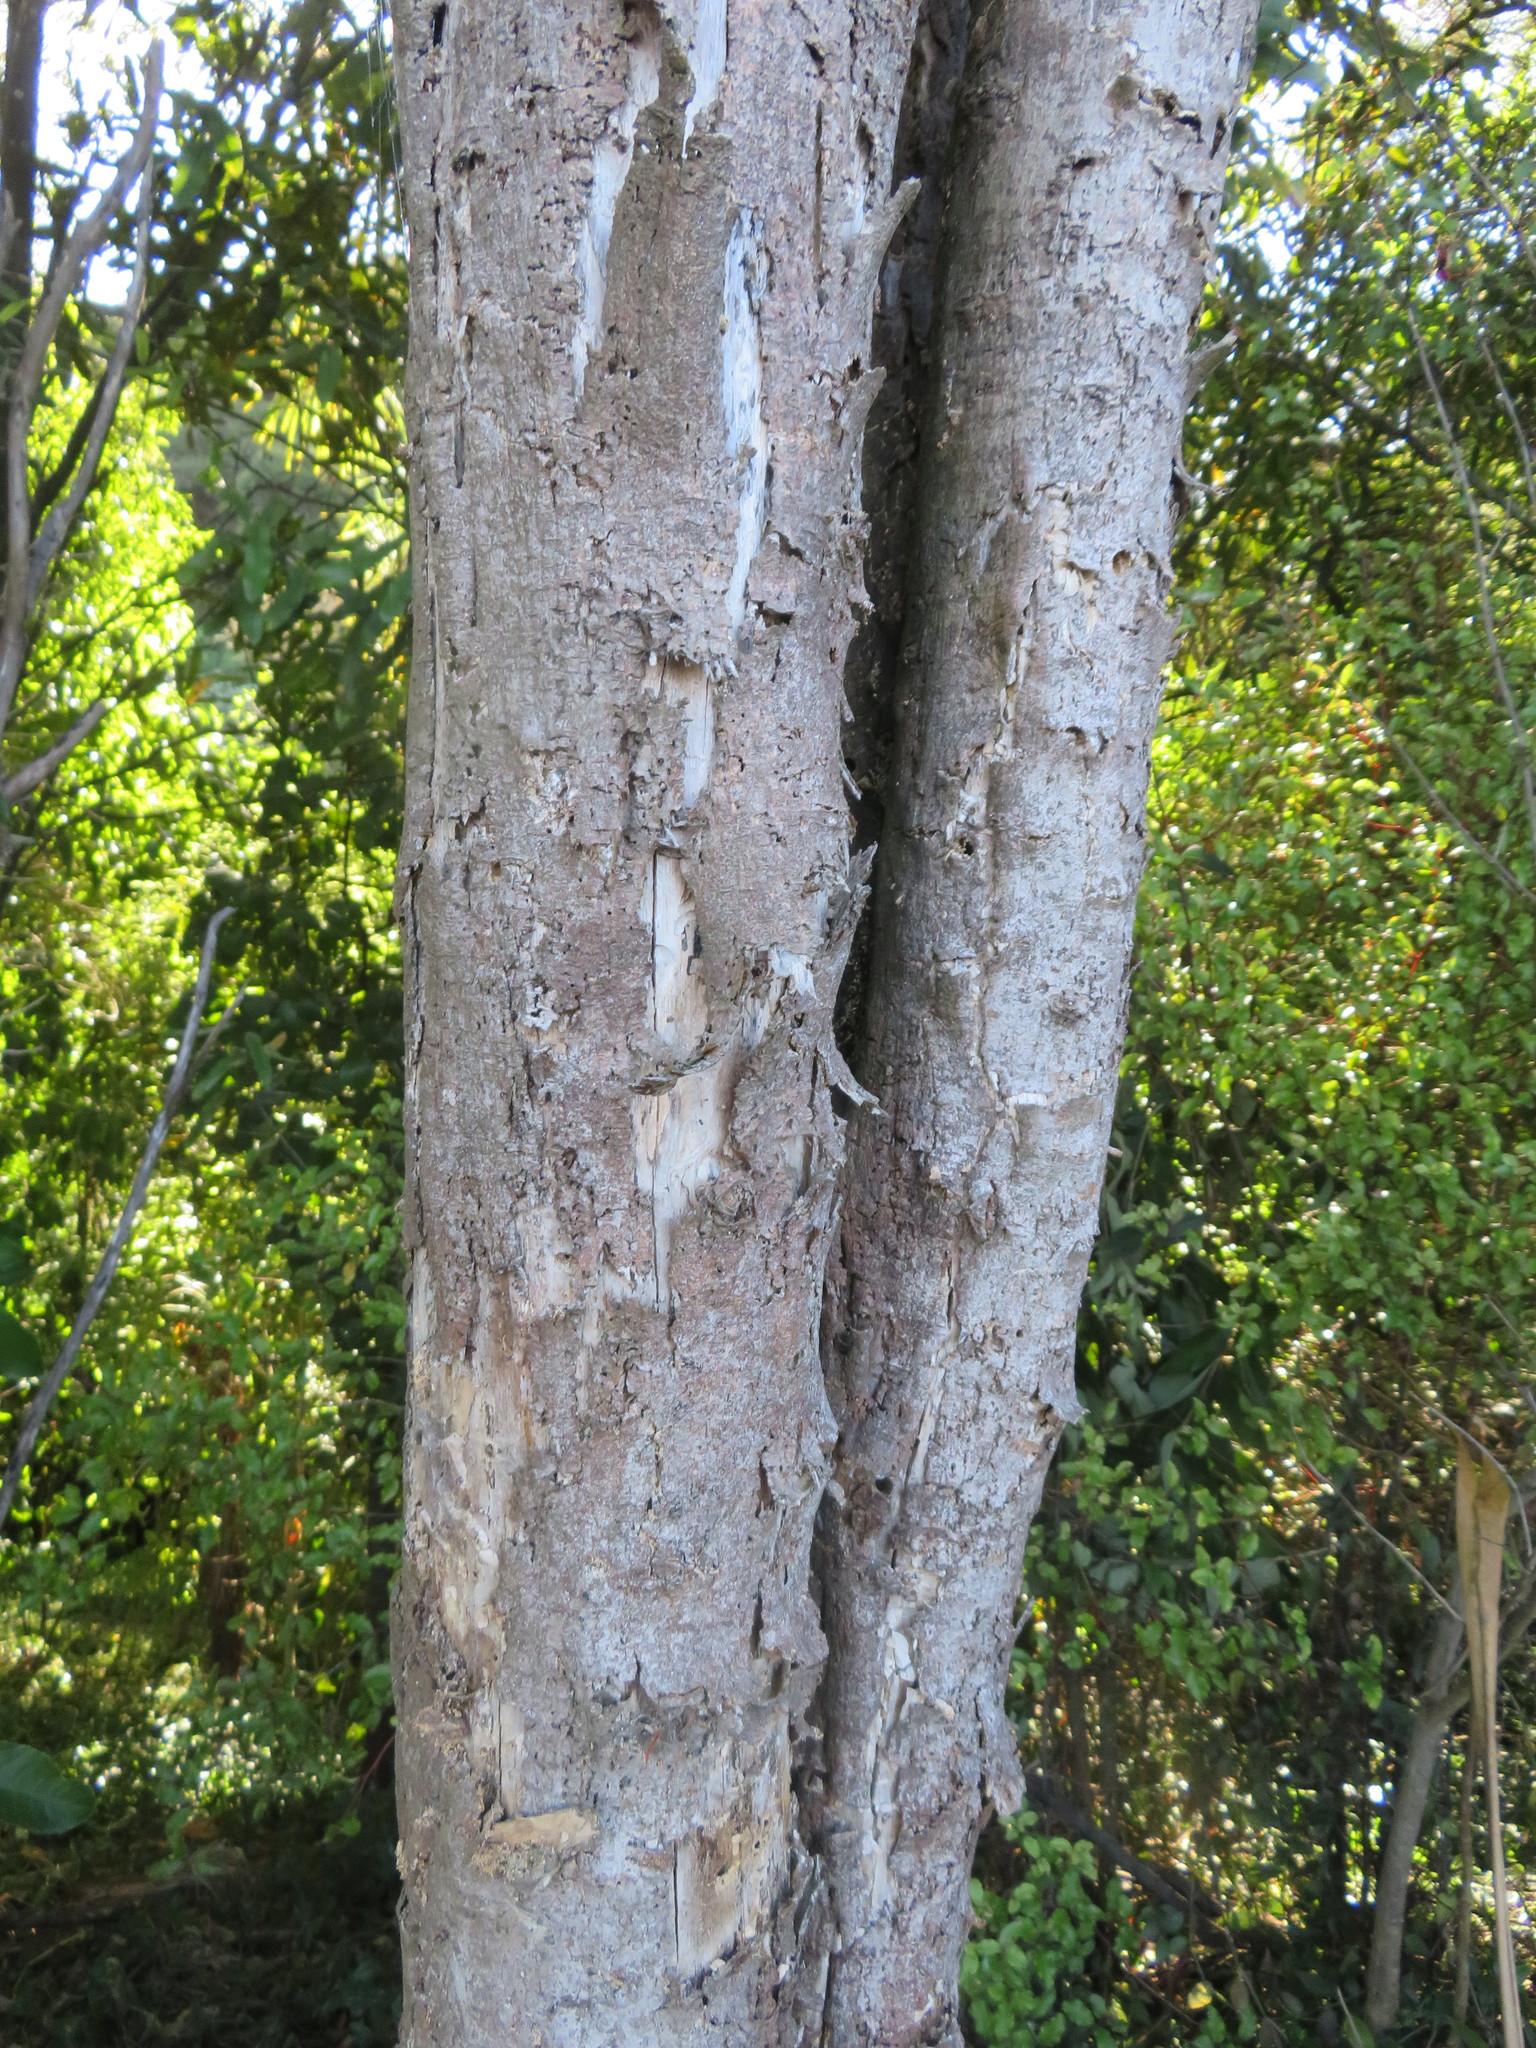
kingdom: Plantae
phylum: Tracheophyta
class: Liliopsida
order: Commelinales
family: Commelinaceae
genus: Tradescantia
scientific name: Tradescantia fluminensis
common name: Wandering-jew
